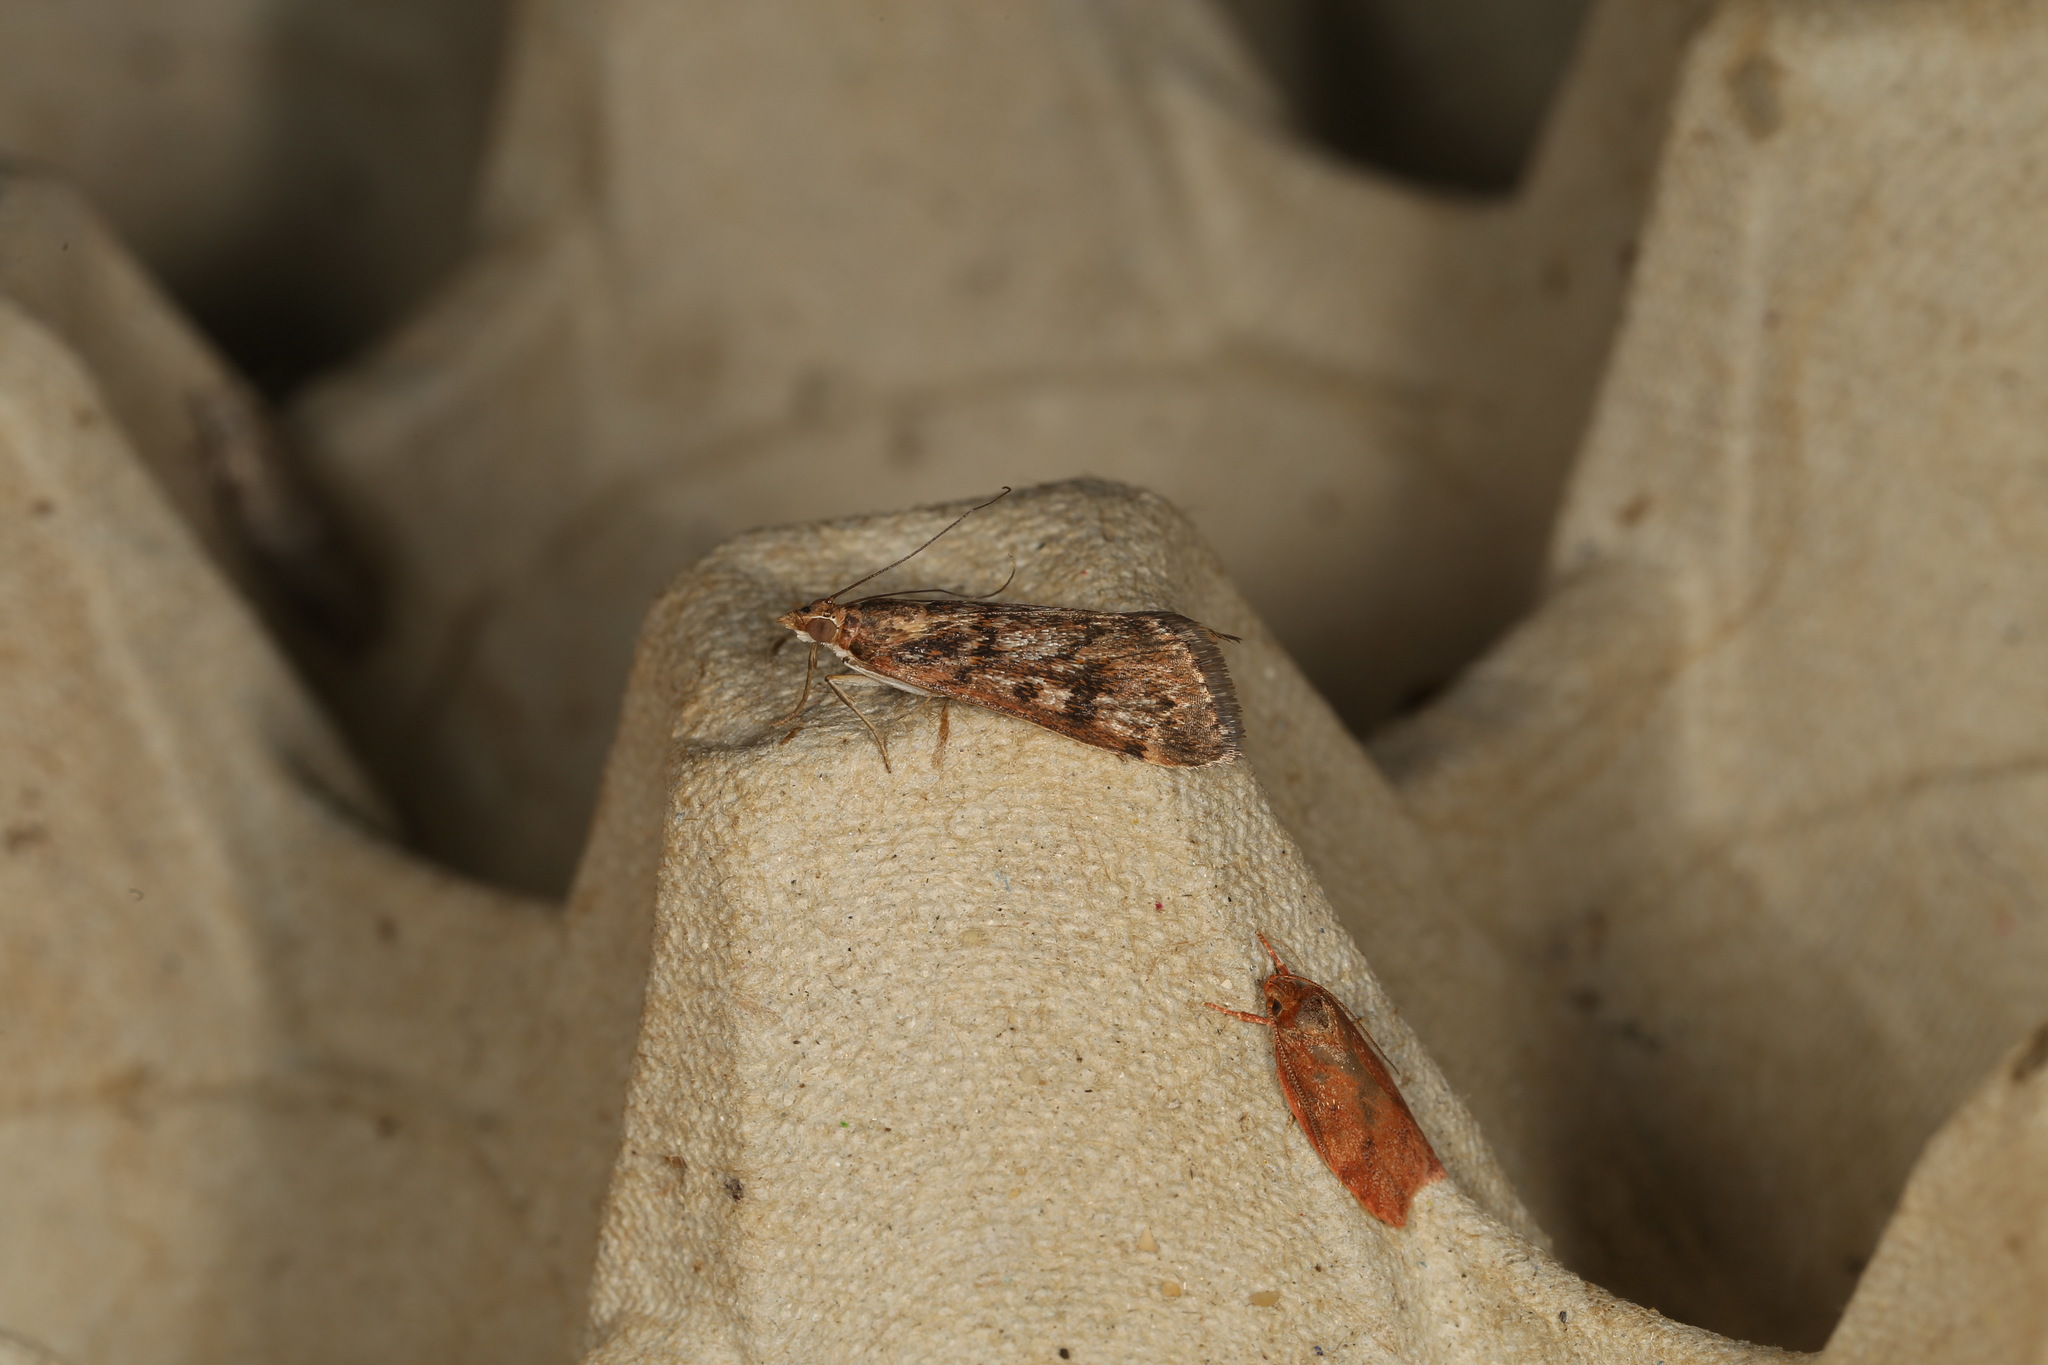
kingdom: Animalia
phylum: Arthropoda
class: Insecta
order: Lepidoptera
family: Crambidae
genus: Achyra
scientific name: Achyra affinitalis
